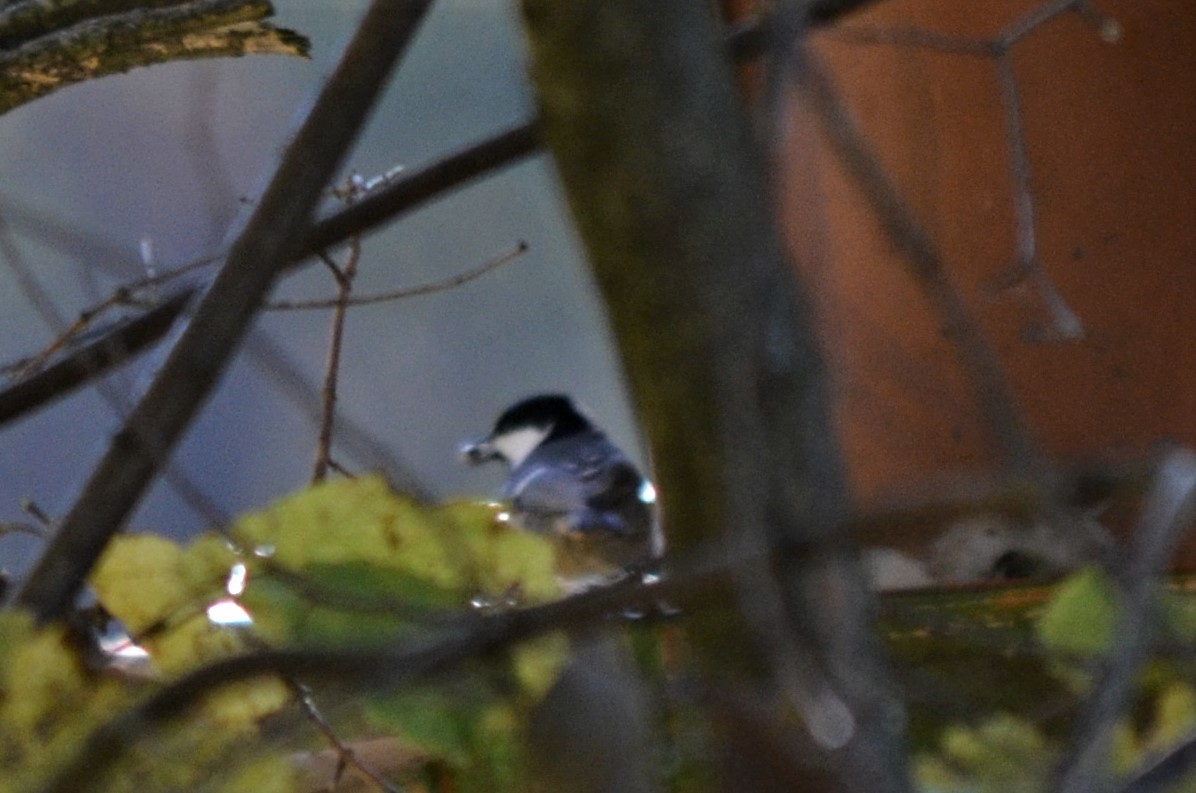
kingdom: Animalia
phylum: Chordata
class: Aves
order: Passeriformes
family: Paridae
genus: Periparus
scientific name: Periparus ater
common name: Coal tit
